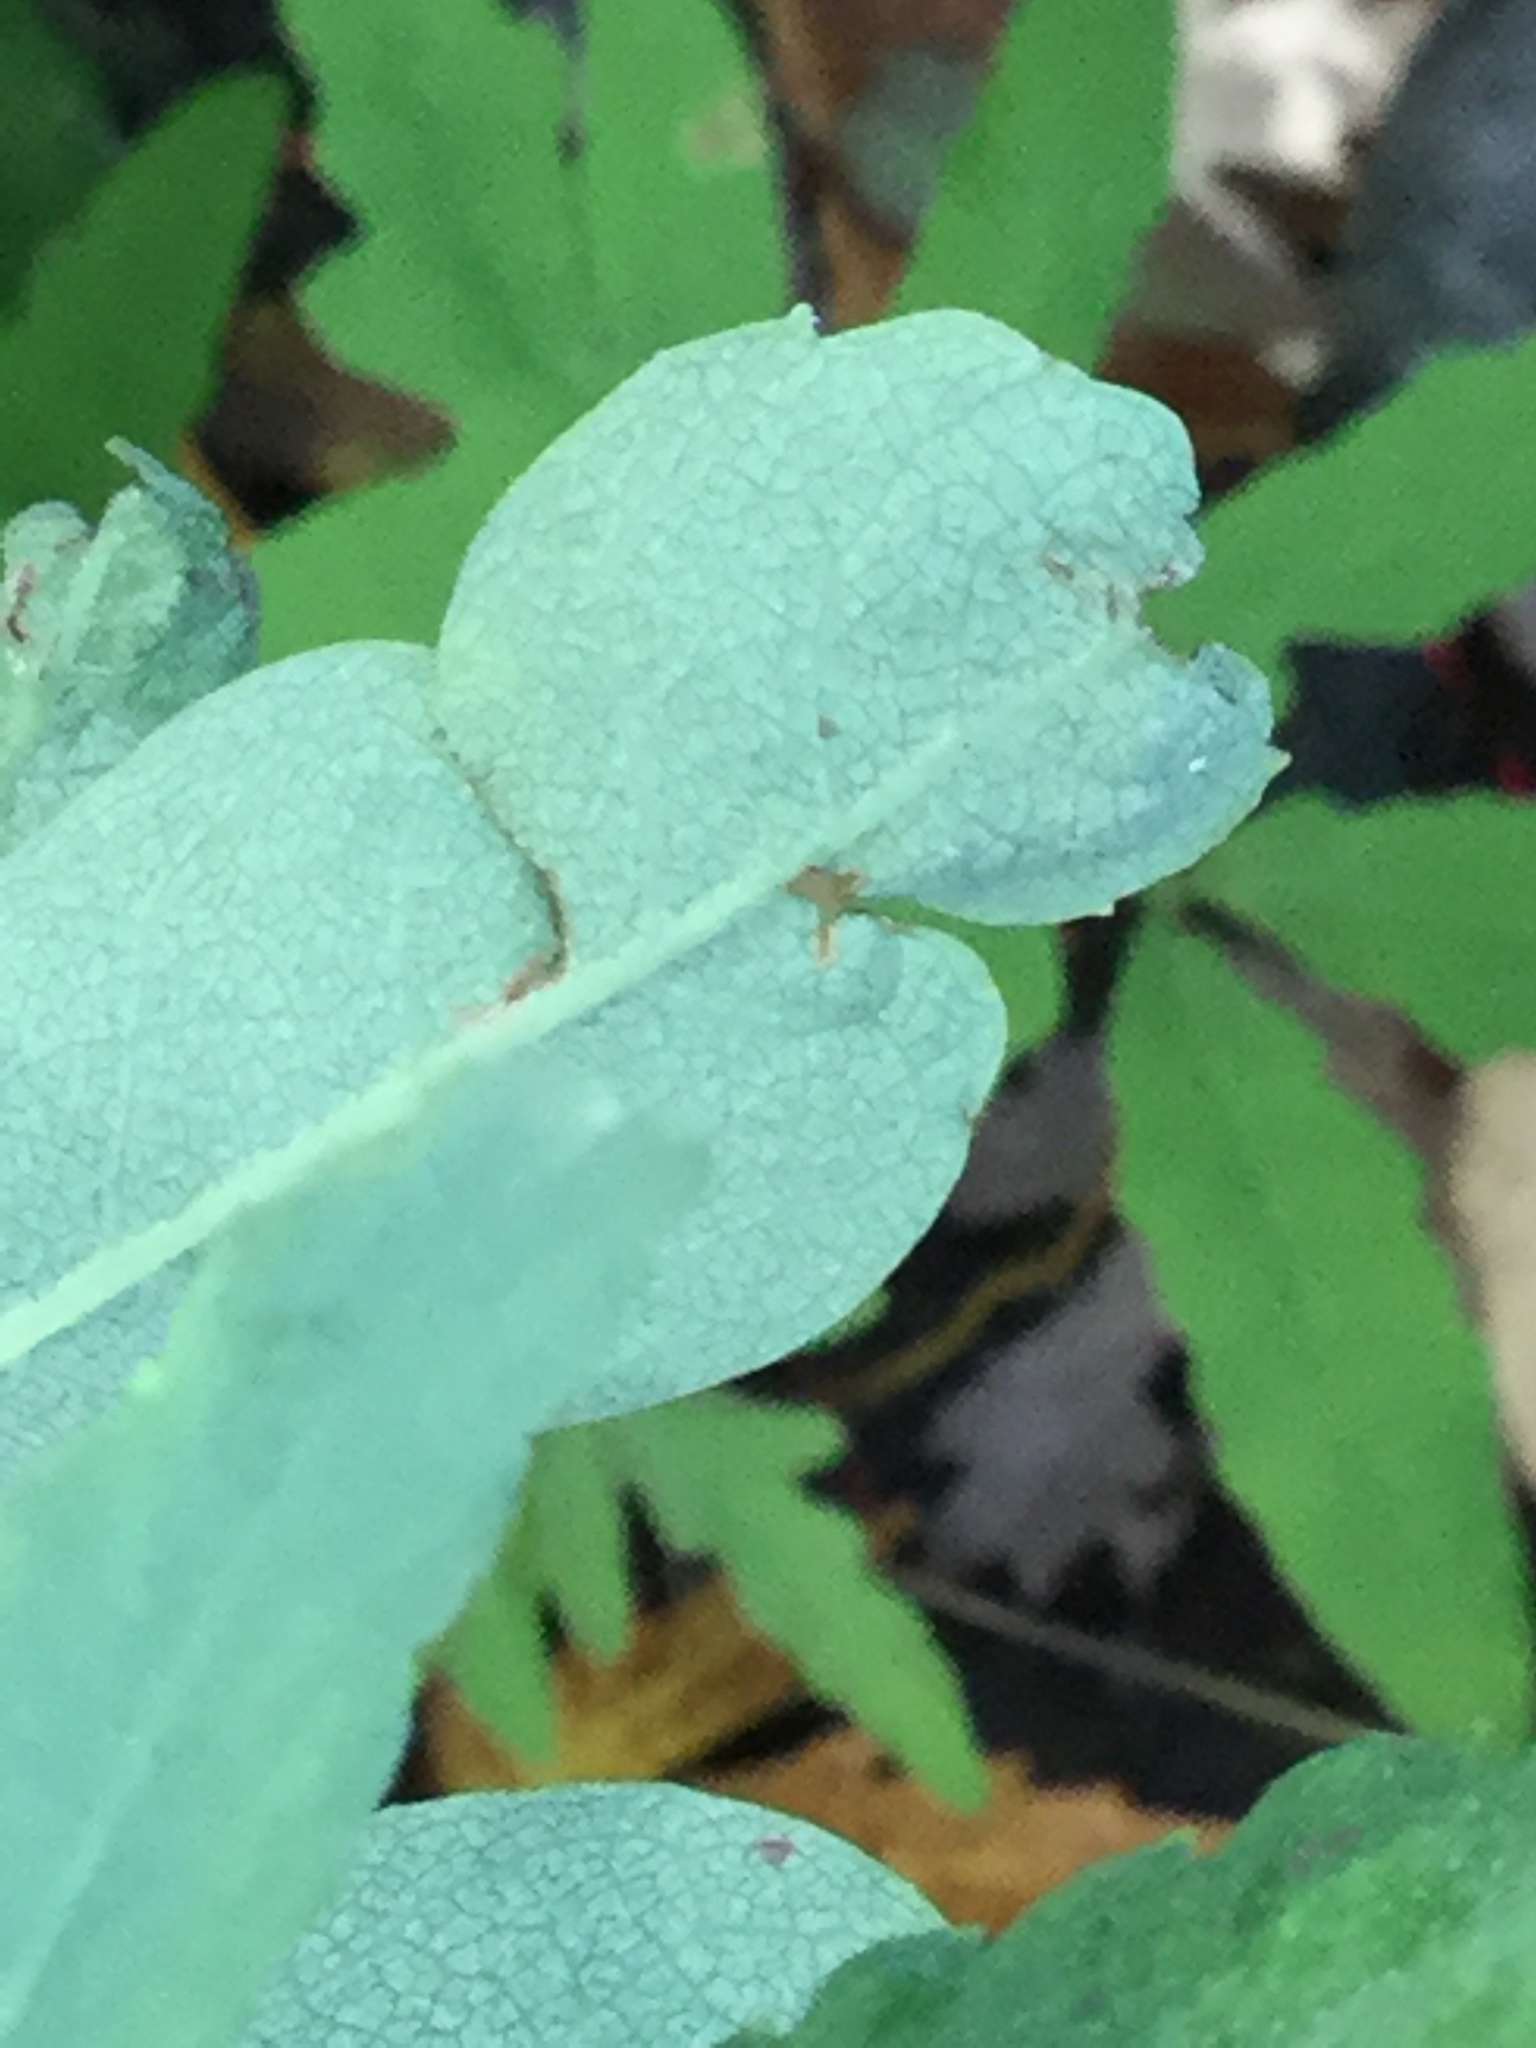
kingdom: Plantae
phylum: Tracheophyta
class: Magnoliopsida
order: Fagales
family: Myricaceae
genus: Myrica
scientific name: Myrica gale
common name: Sweet gale
